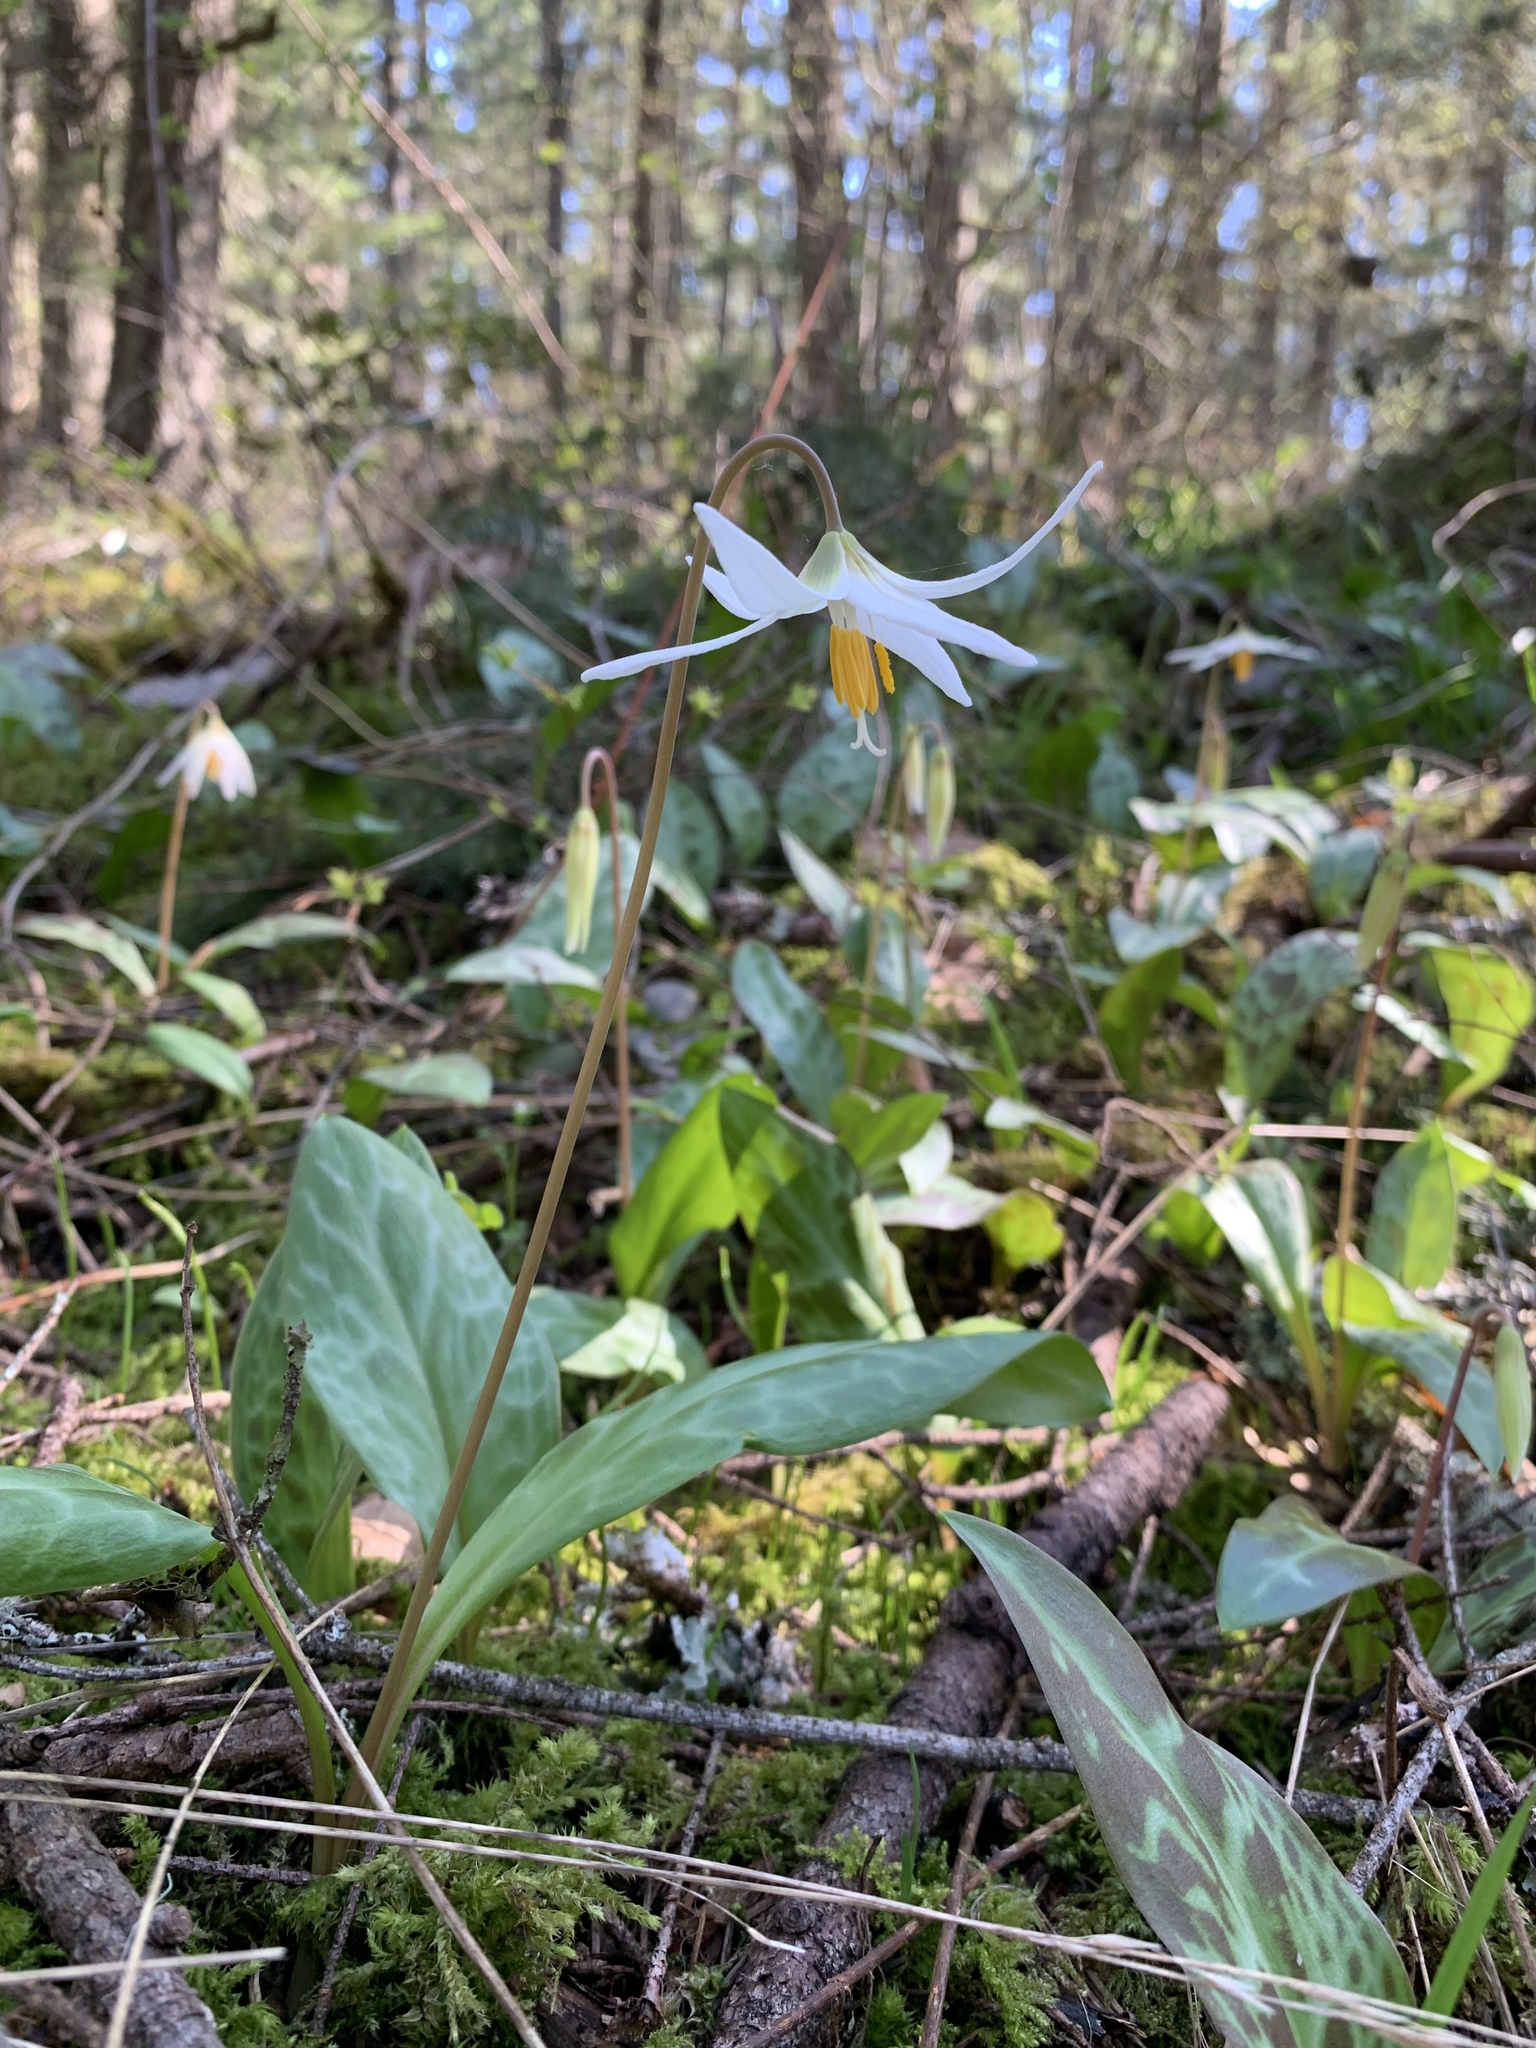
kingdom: Plantae
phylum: Tracheophyta
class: Liliopsida
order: Liliales
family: Liliaceae
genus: Erythronium
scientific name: Erythronium oregonum
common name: Giant adder's-tongue
